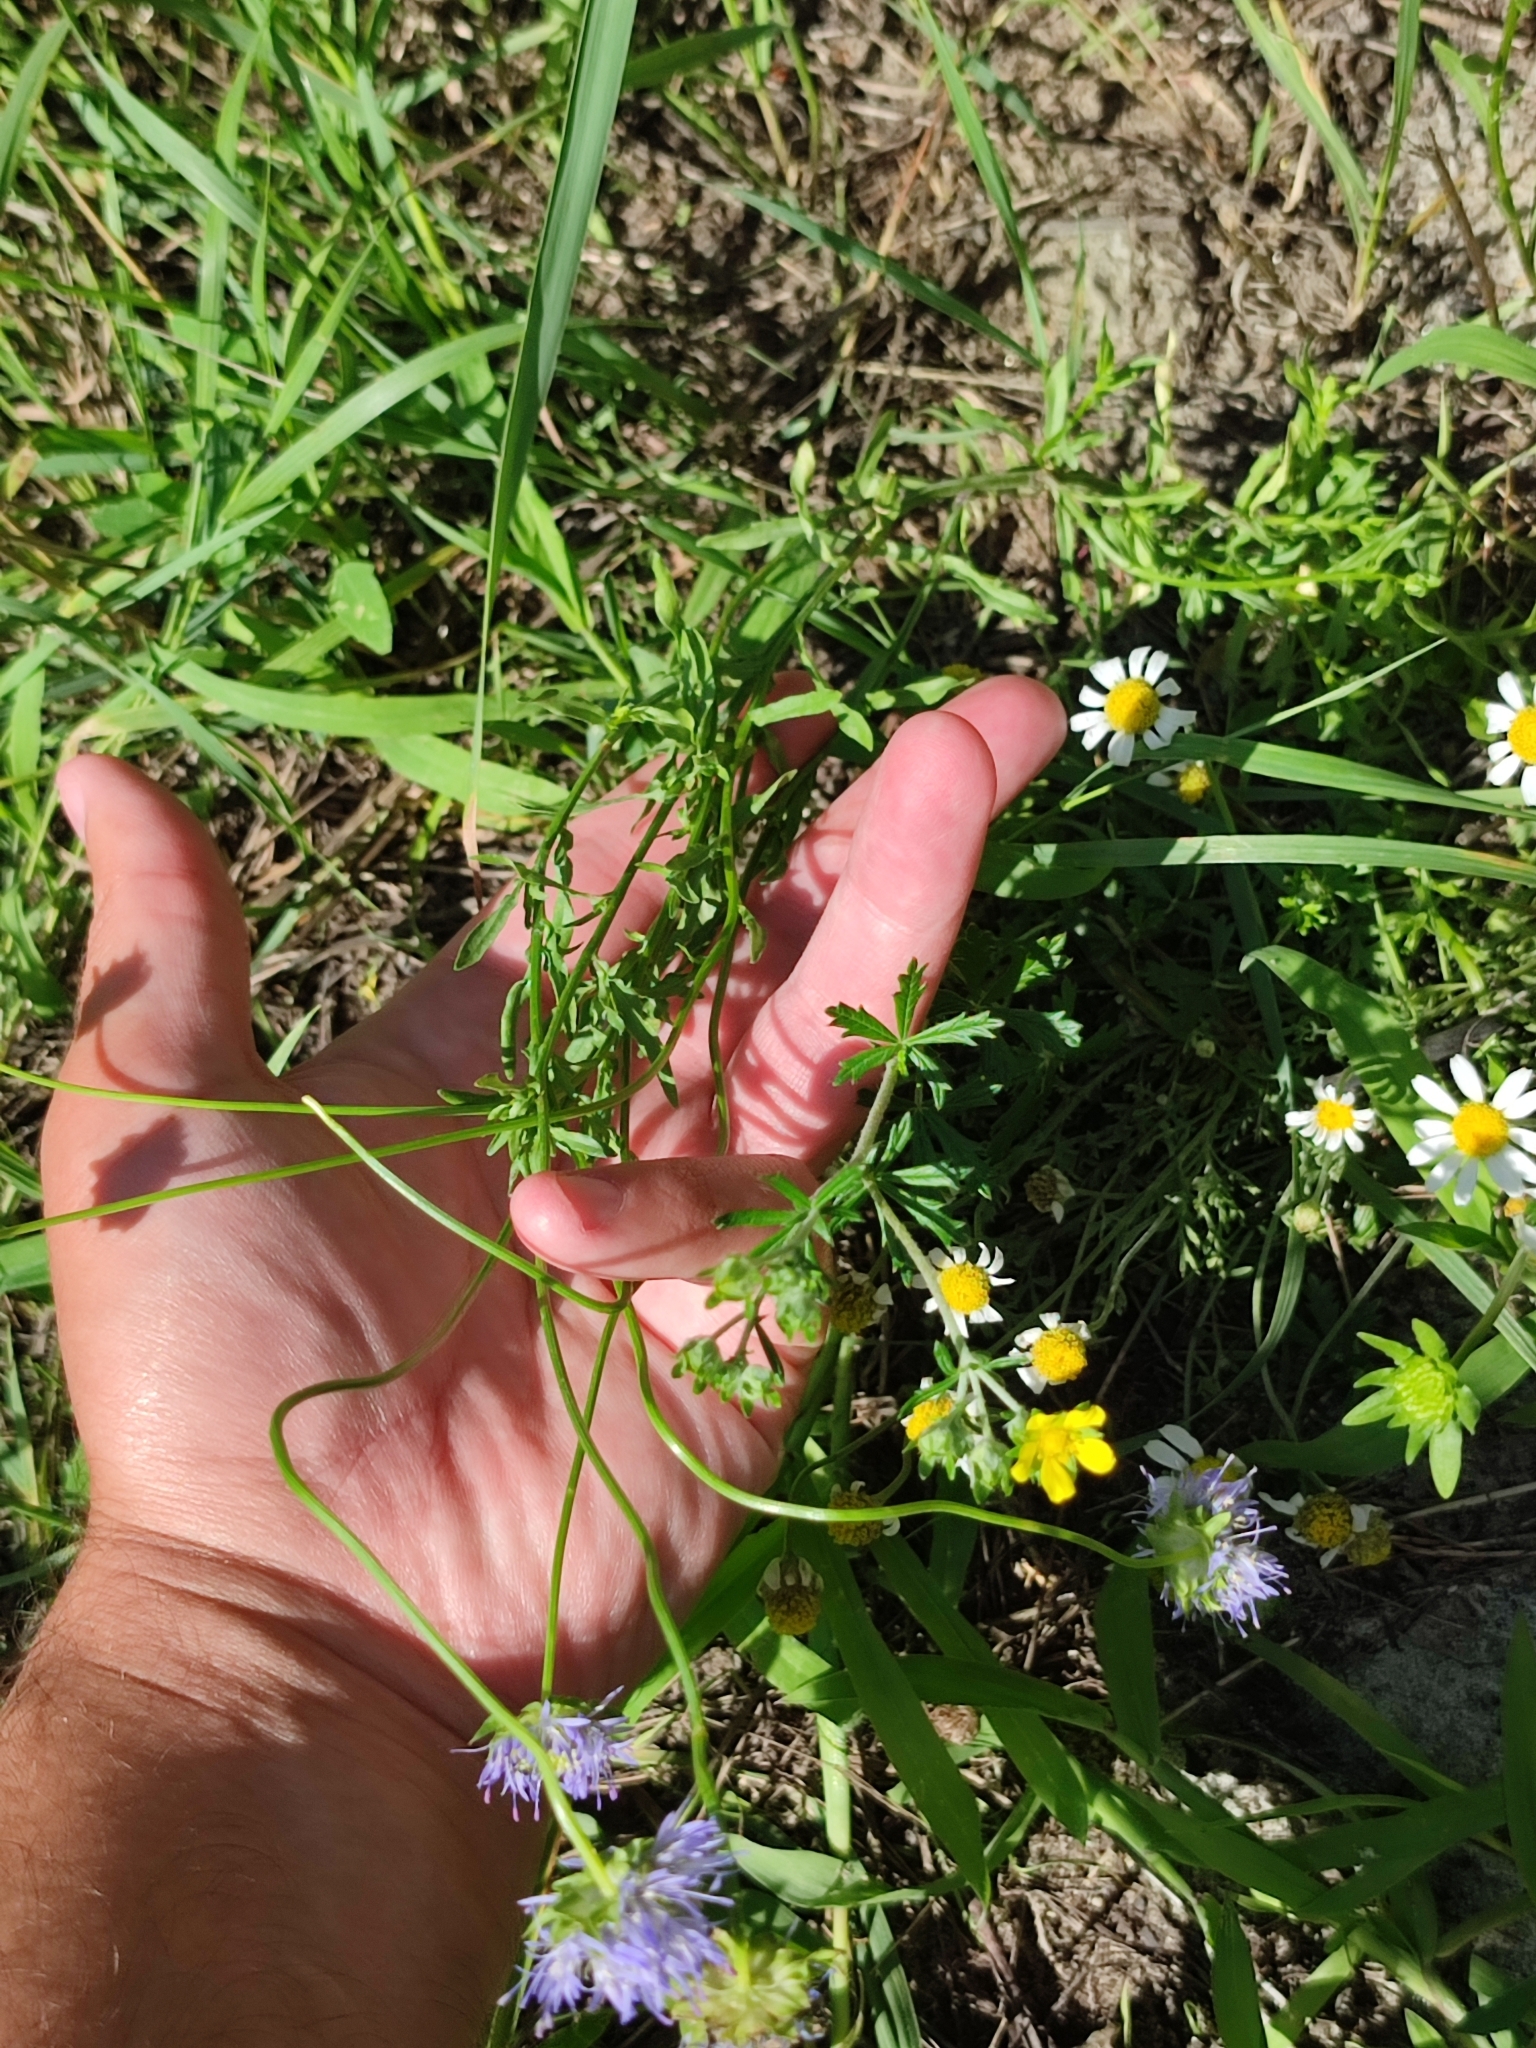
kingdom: Plantae
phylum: Tracheophyta
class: Magnoliopsida
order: Asterales
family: Campanulaceae
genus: Jasione
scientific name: Jasione montana
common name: Sheep's-bit
